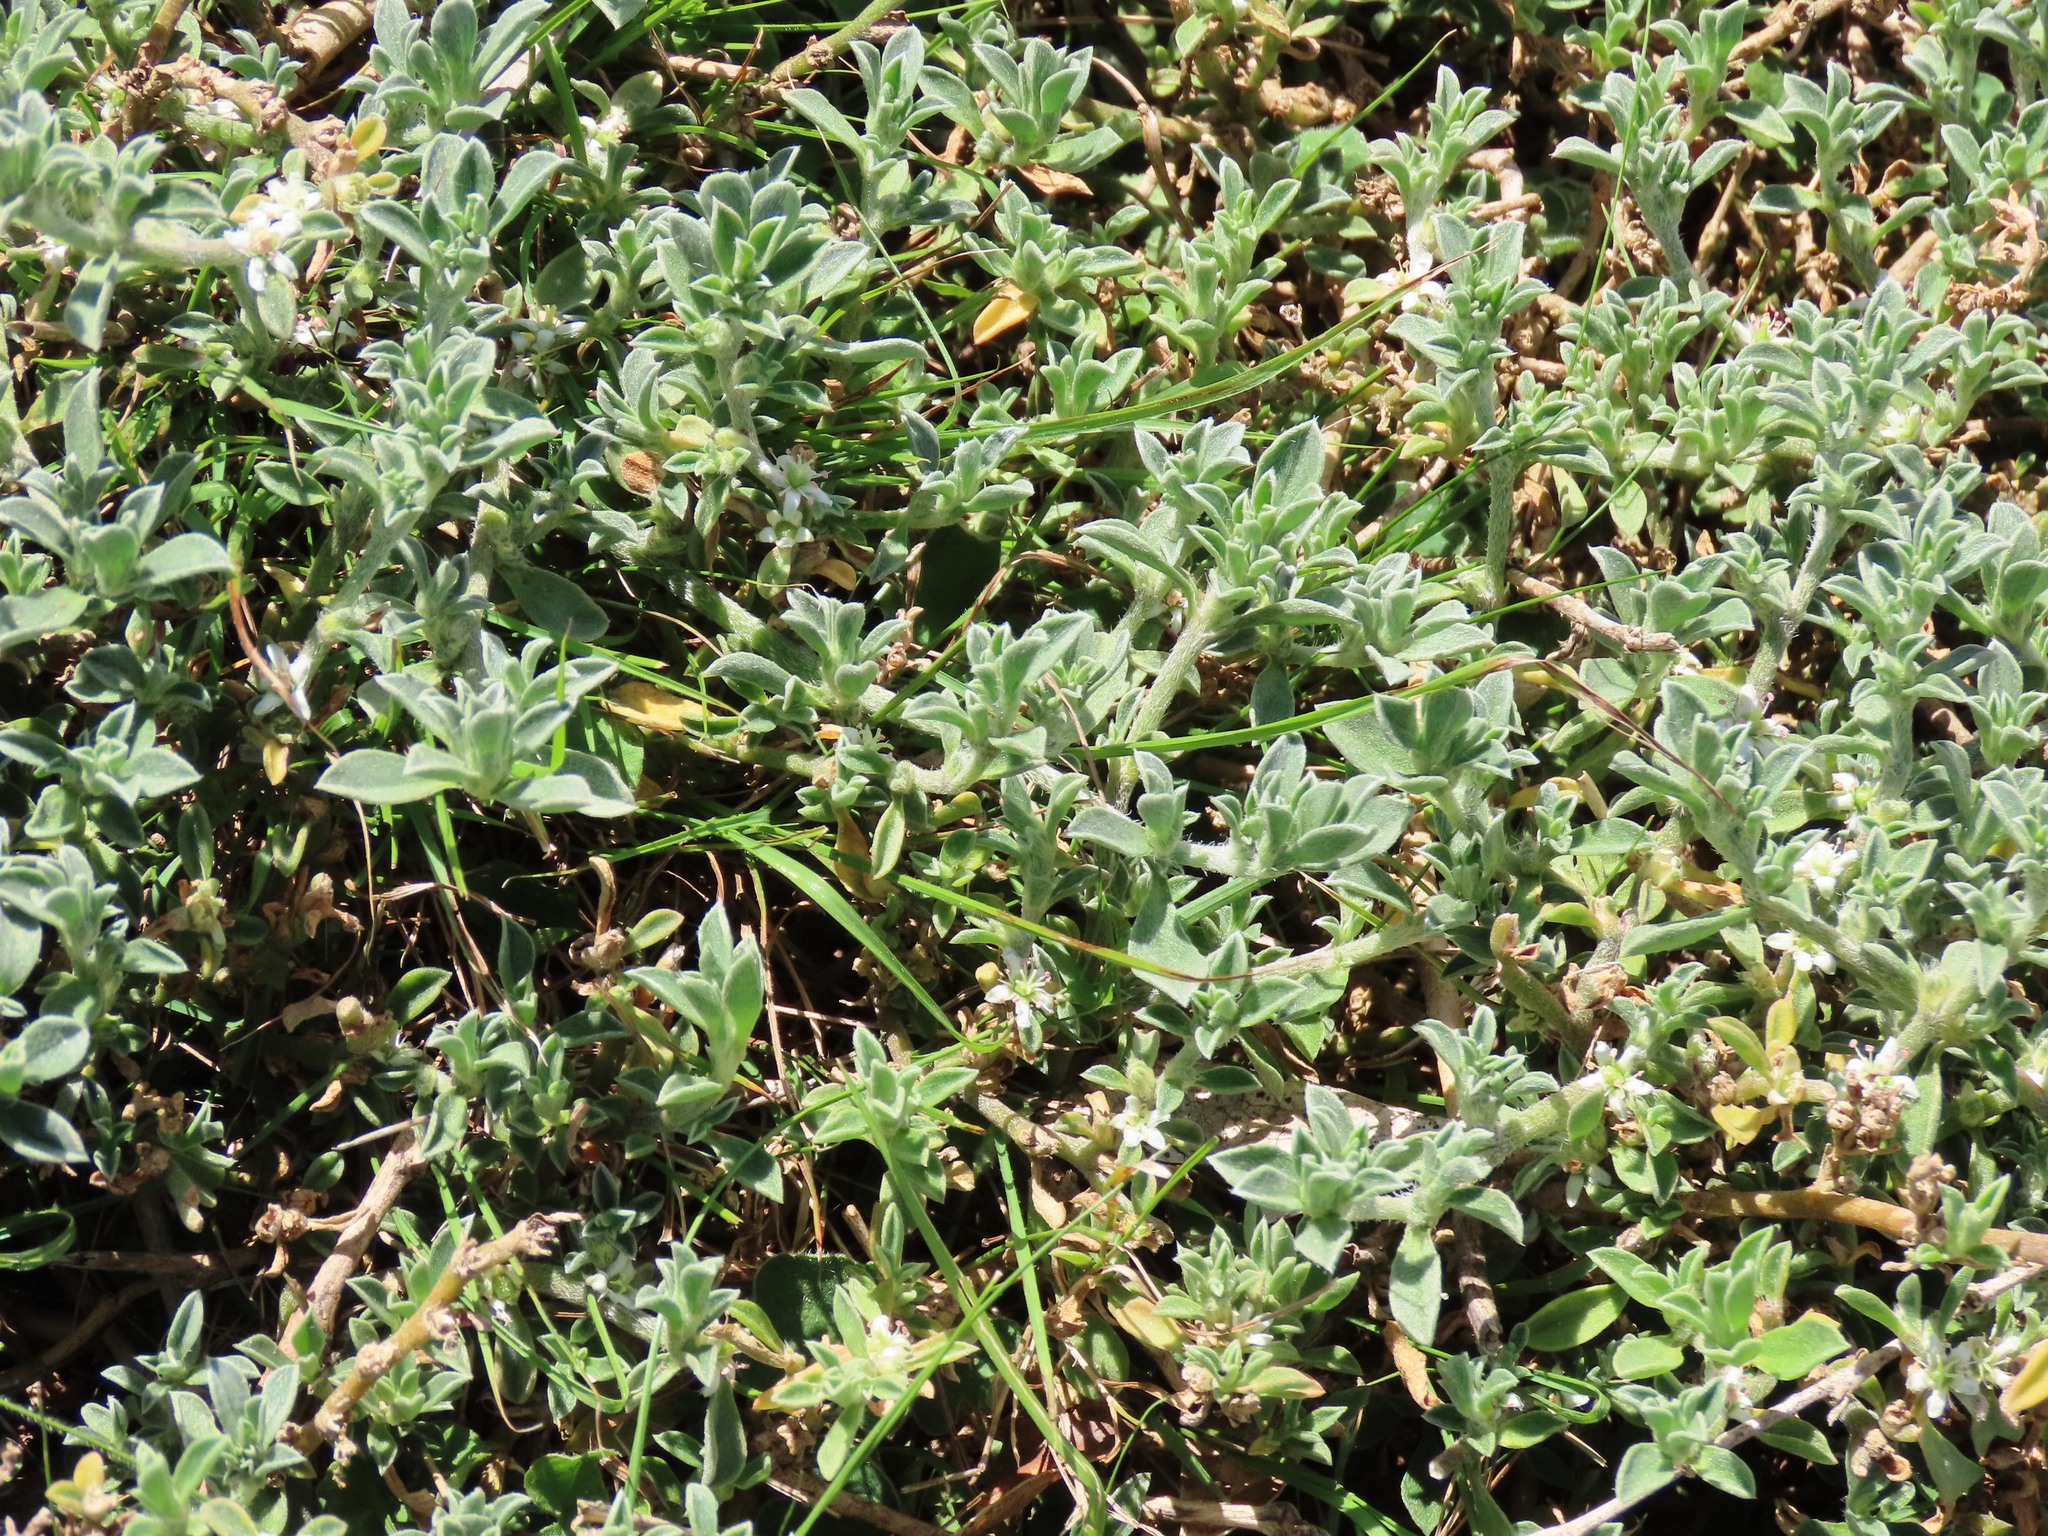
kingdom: Plantae
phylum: Tracheophyta
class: Magnoliopsida
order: Caryophyllales
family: Aizoaceae
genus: Aizoon
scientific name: Aizoon pubescens
